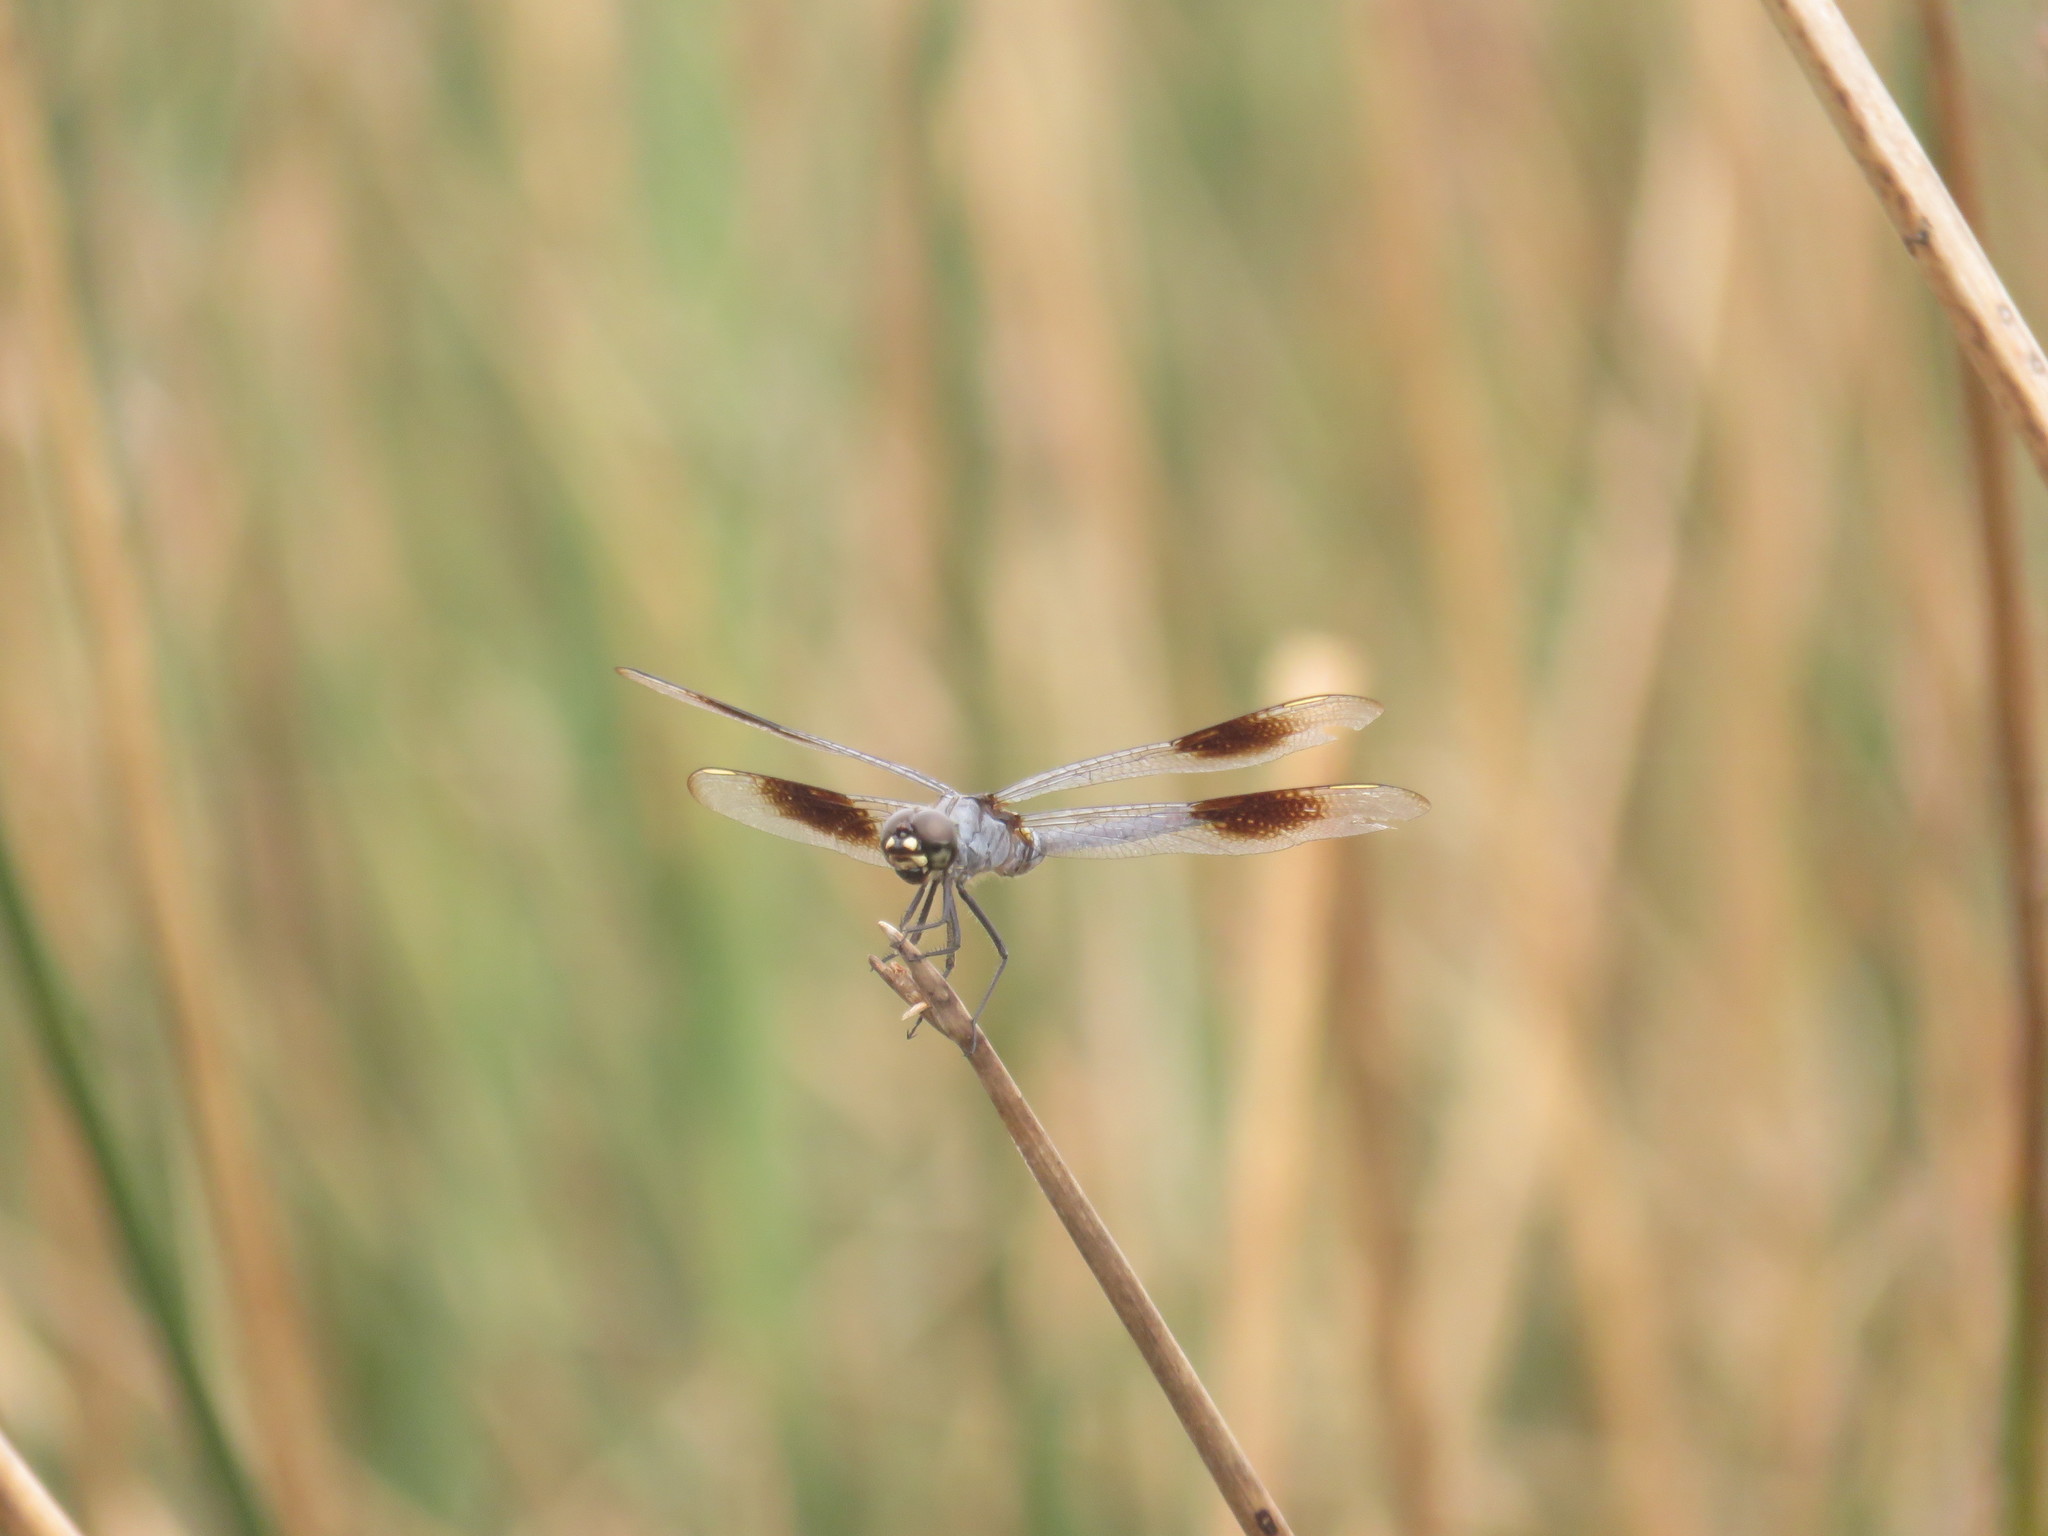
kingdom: Animalia
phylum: Arthropoda
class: Insecta
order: Odonata
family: Libellulidae
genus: Brachymesia
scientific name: Brachymesia gravida
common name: Four-spotted pennant
